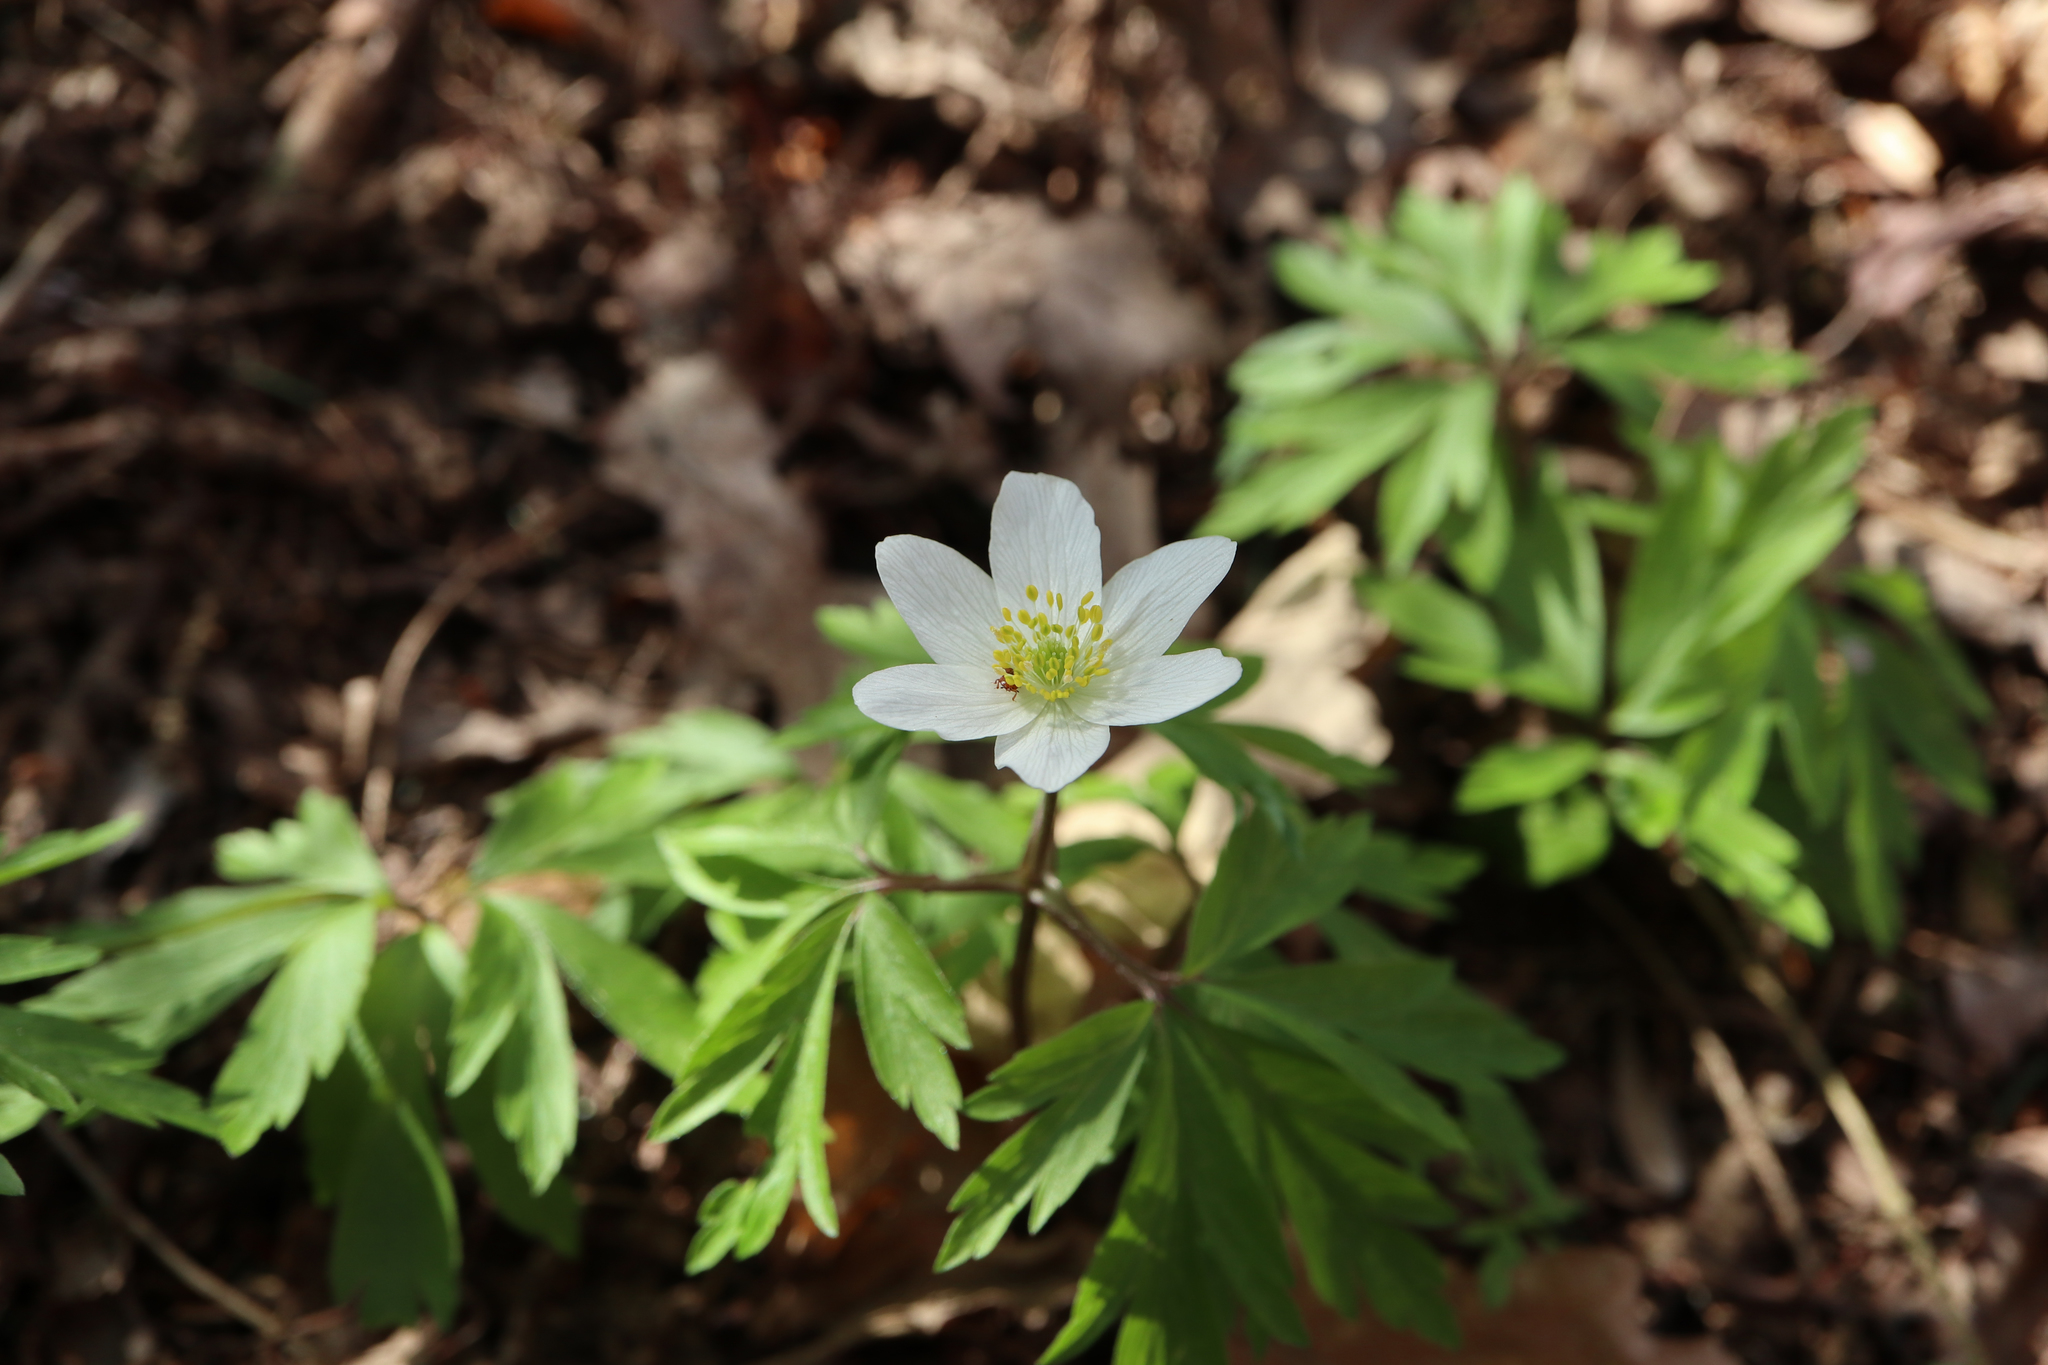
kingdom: Plantae
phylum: Tracheophyta
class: Magnoliopsida
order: Ranunculales
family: Ranunculaceae
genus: Anemone
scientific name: Anemone nemorosa
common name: Wood anemone
